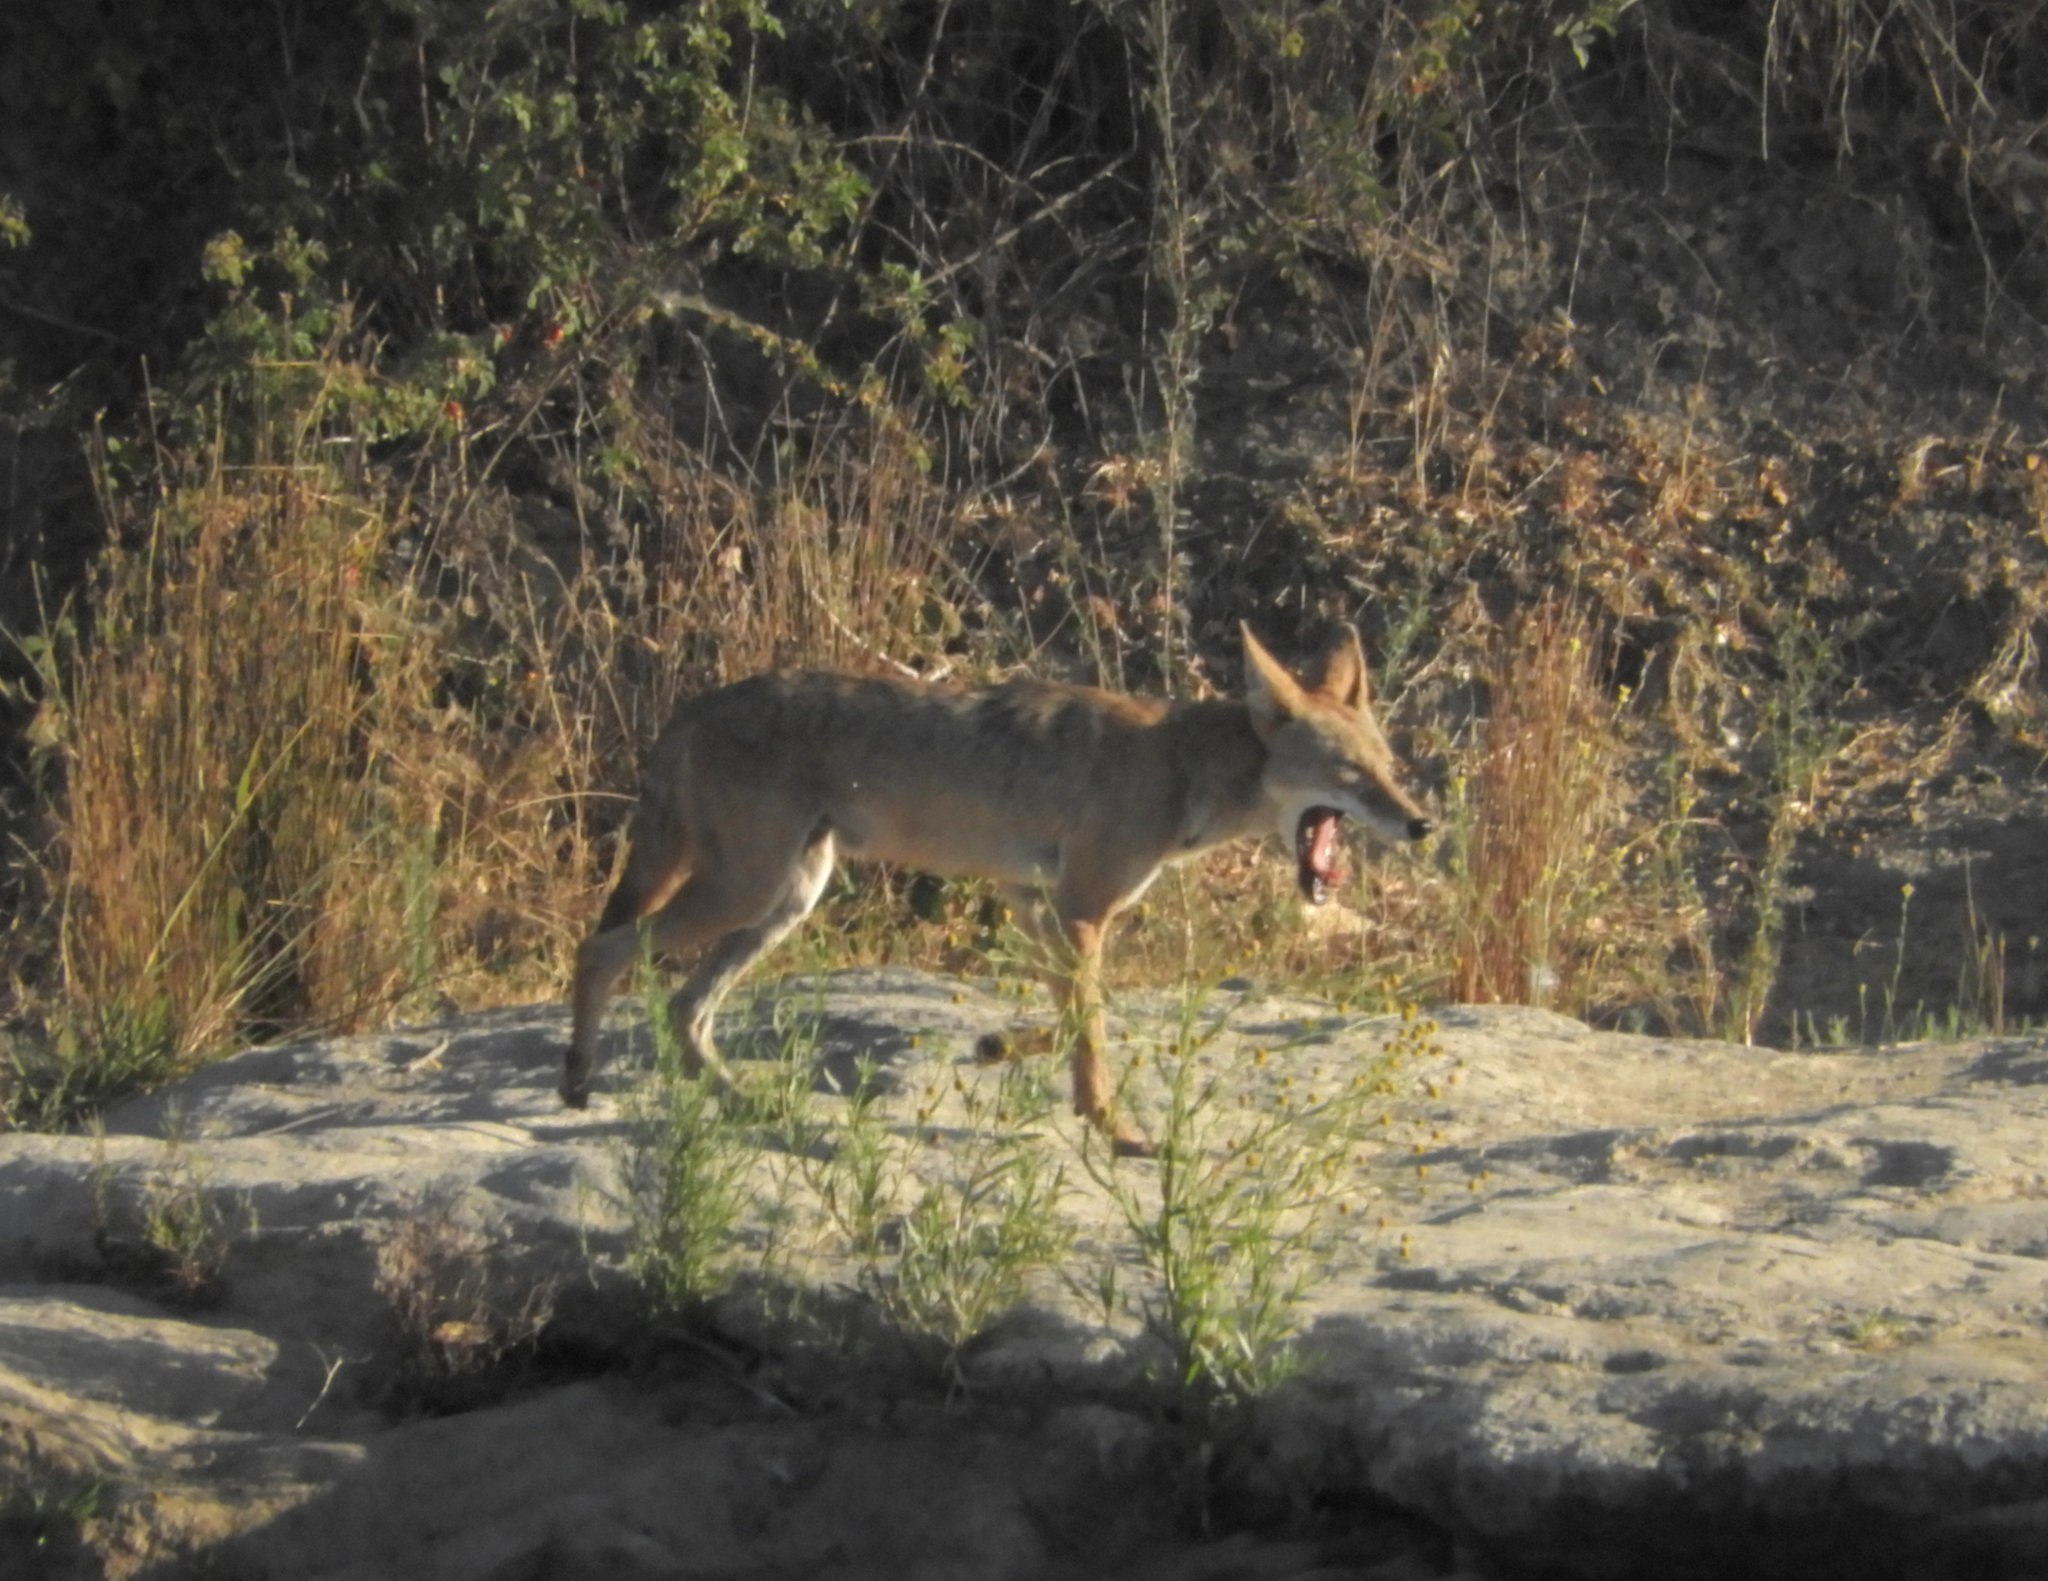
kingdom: Animalia
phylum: Chordata
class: Mammalia
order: Carnivora
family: Canidae
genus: Canis
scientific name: Canis latrans
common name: Coyote
